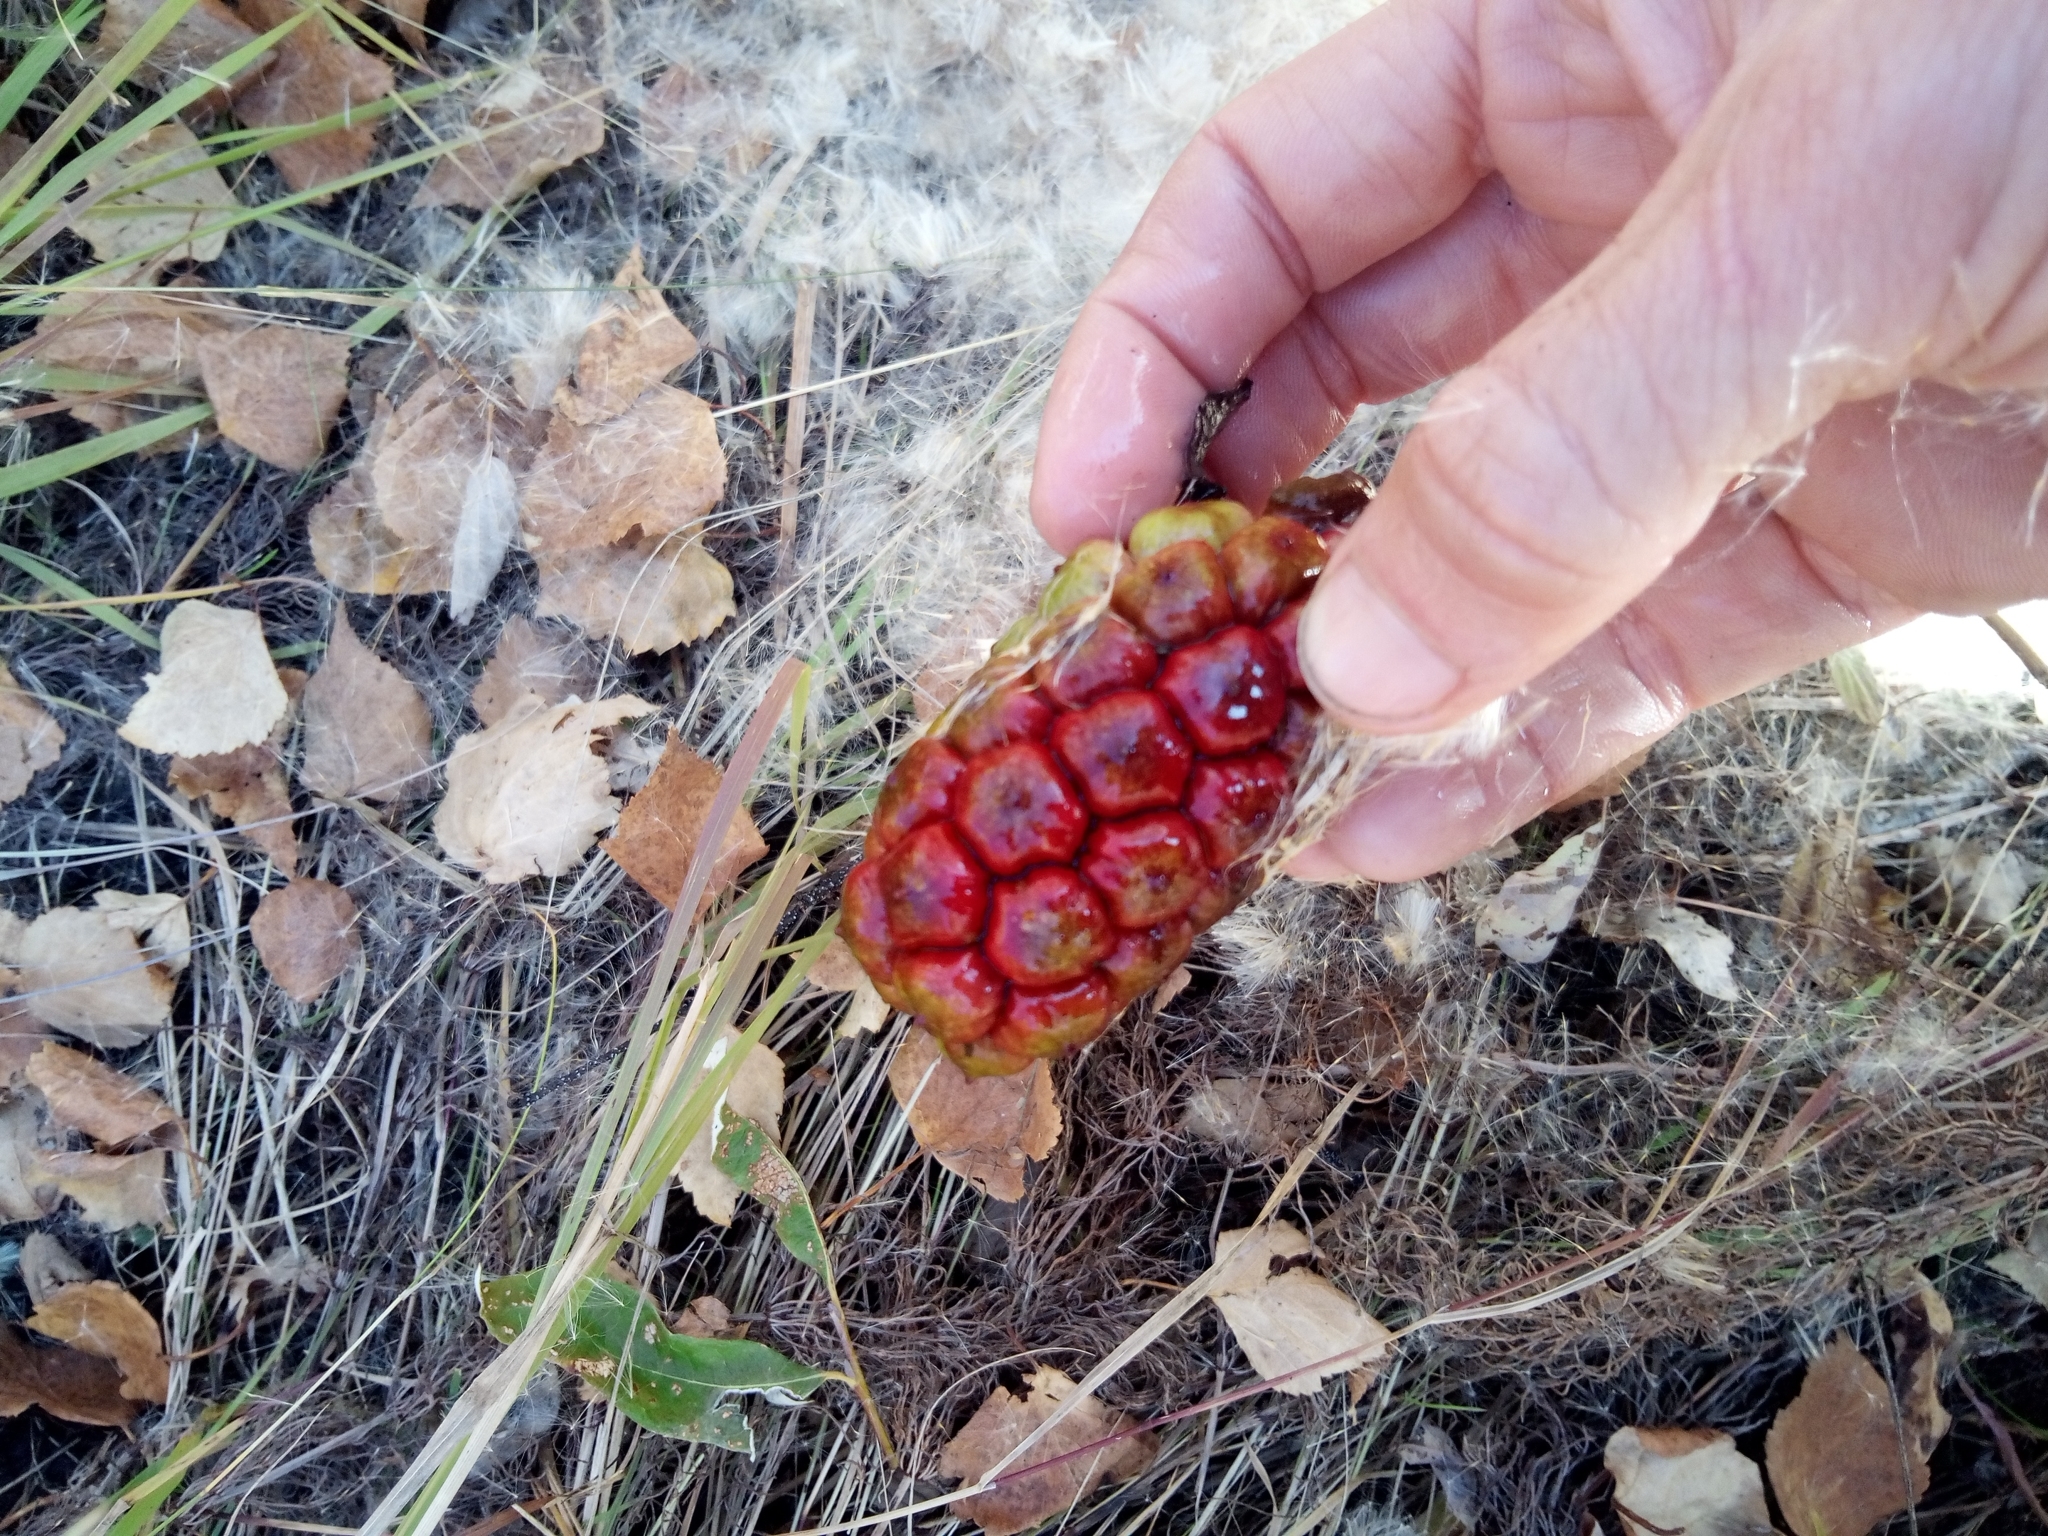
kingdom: Plantae
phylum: Tracheophyta
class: Liliopsida
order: Alismatales
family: Araceae
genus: Calla
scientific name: Calla palustris
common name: Bog arum
